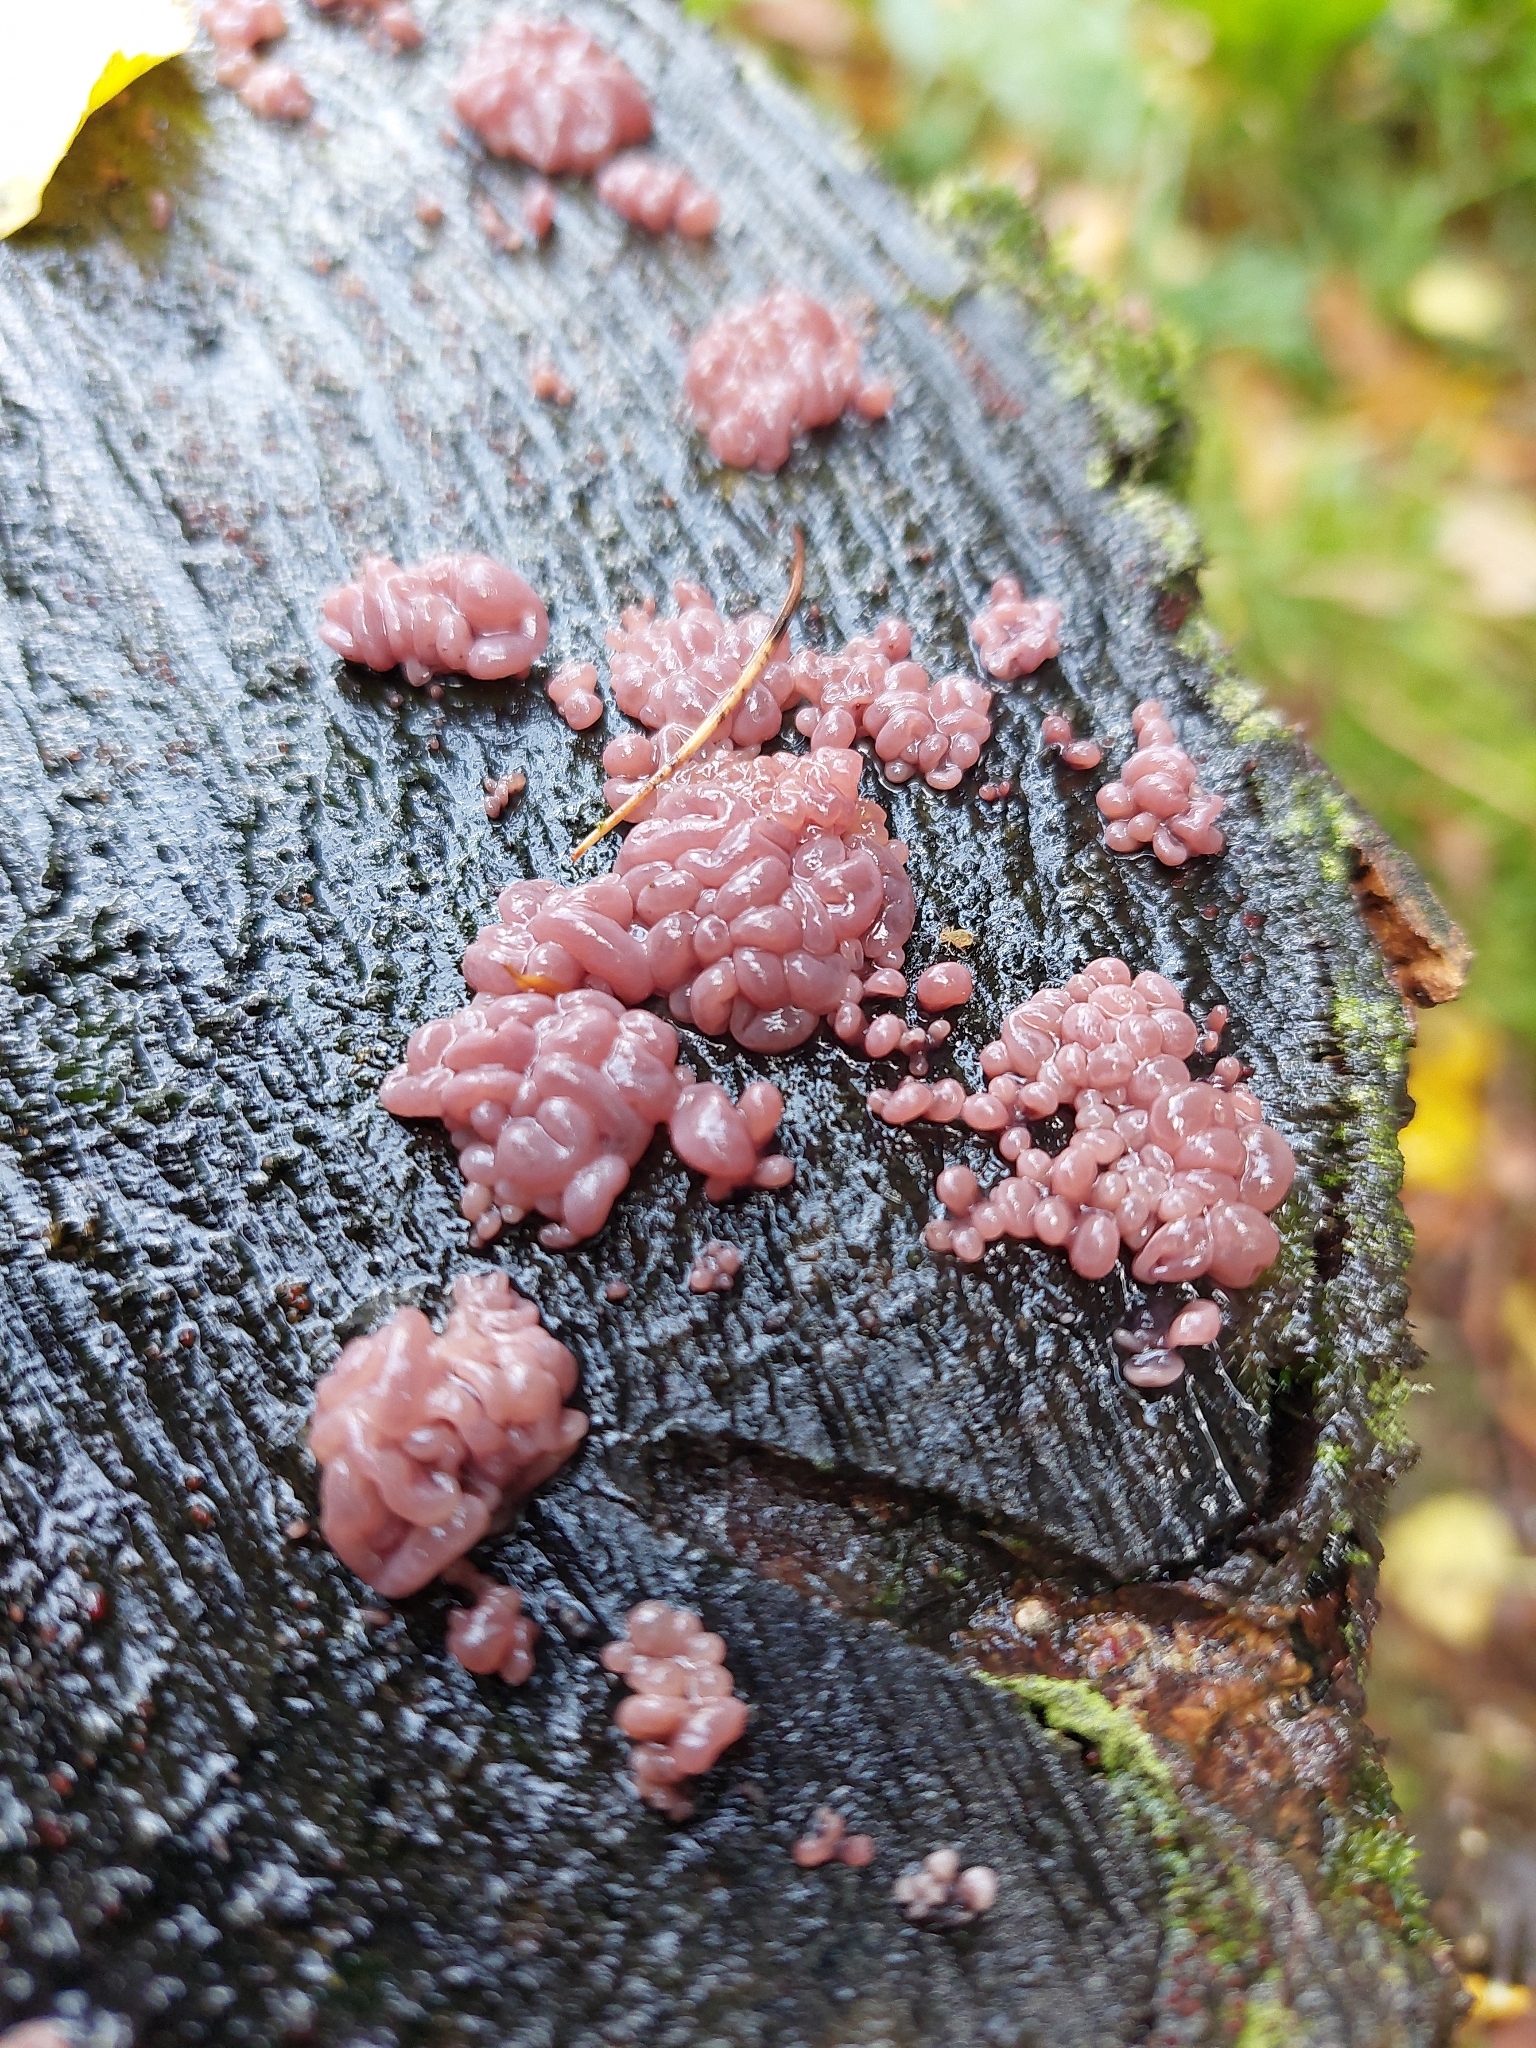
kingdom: Fungi
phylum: Ascomycota
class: Leotiomycetes
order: Helotiales
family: Gelatinodiscaceae
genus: Ascocoryne
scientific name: Ascocoryne sarcoides
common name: Purple jellydisc
